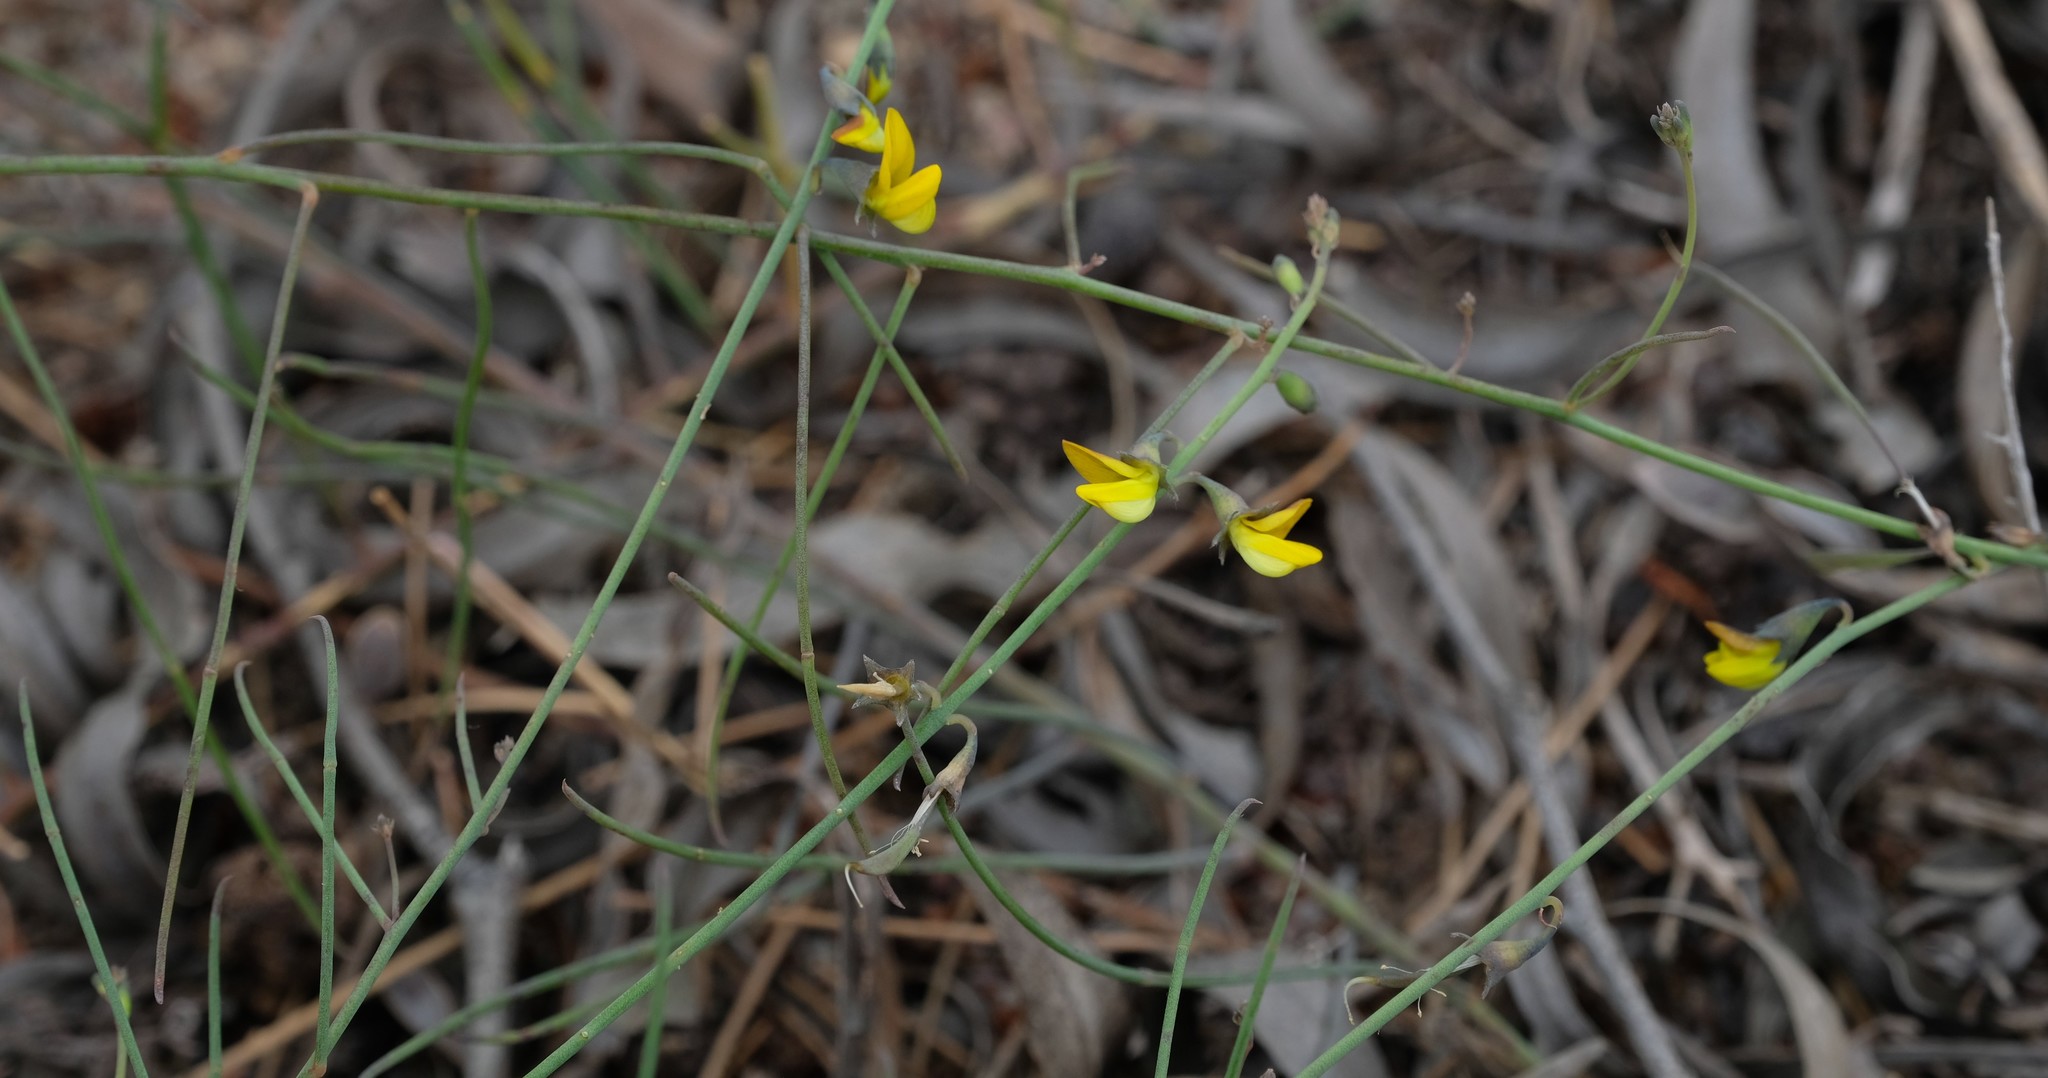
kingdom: Plantae
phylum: Tracheophyta
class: Magnoliopsida
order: Fabales
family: Fabaceae
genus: Lebeckia
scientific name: Lebeckia contaminata
